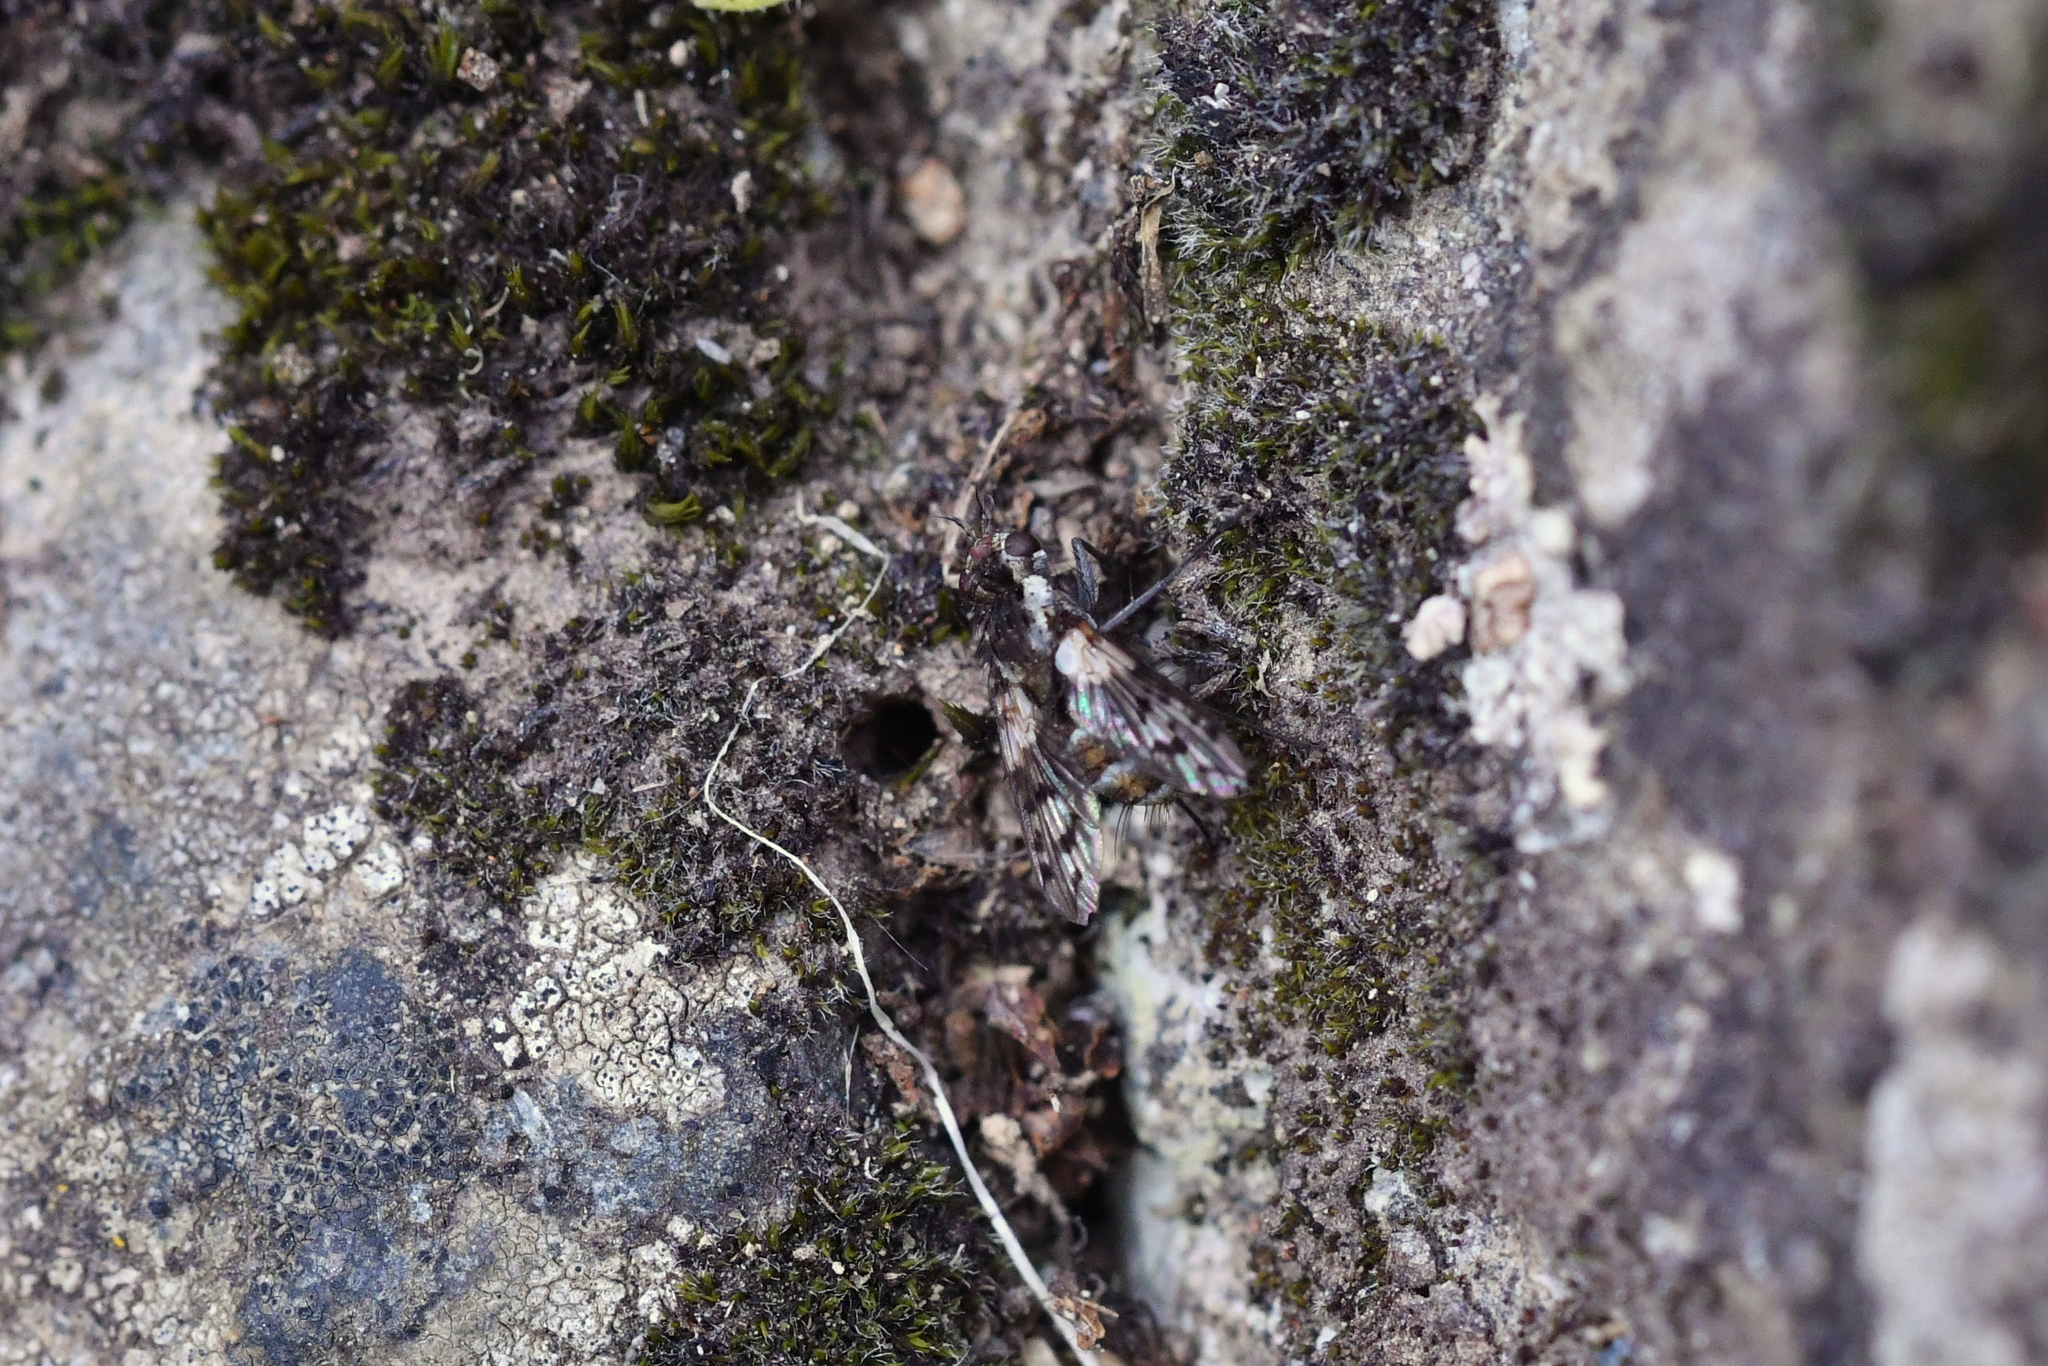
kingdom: Animalia
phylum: Arthropoda
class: Insecta
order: Diptera
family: Tachinidae
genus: Heteria
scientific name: Heteria appendiculata
